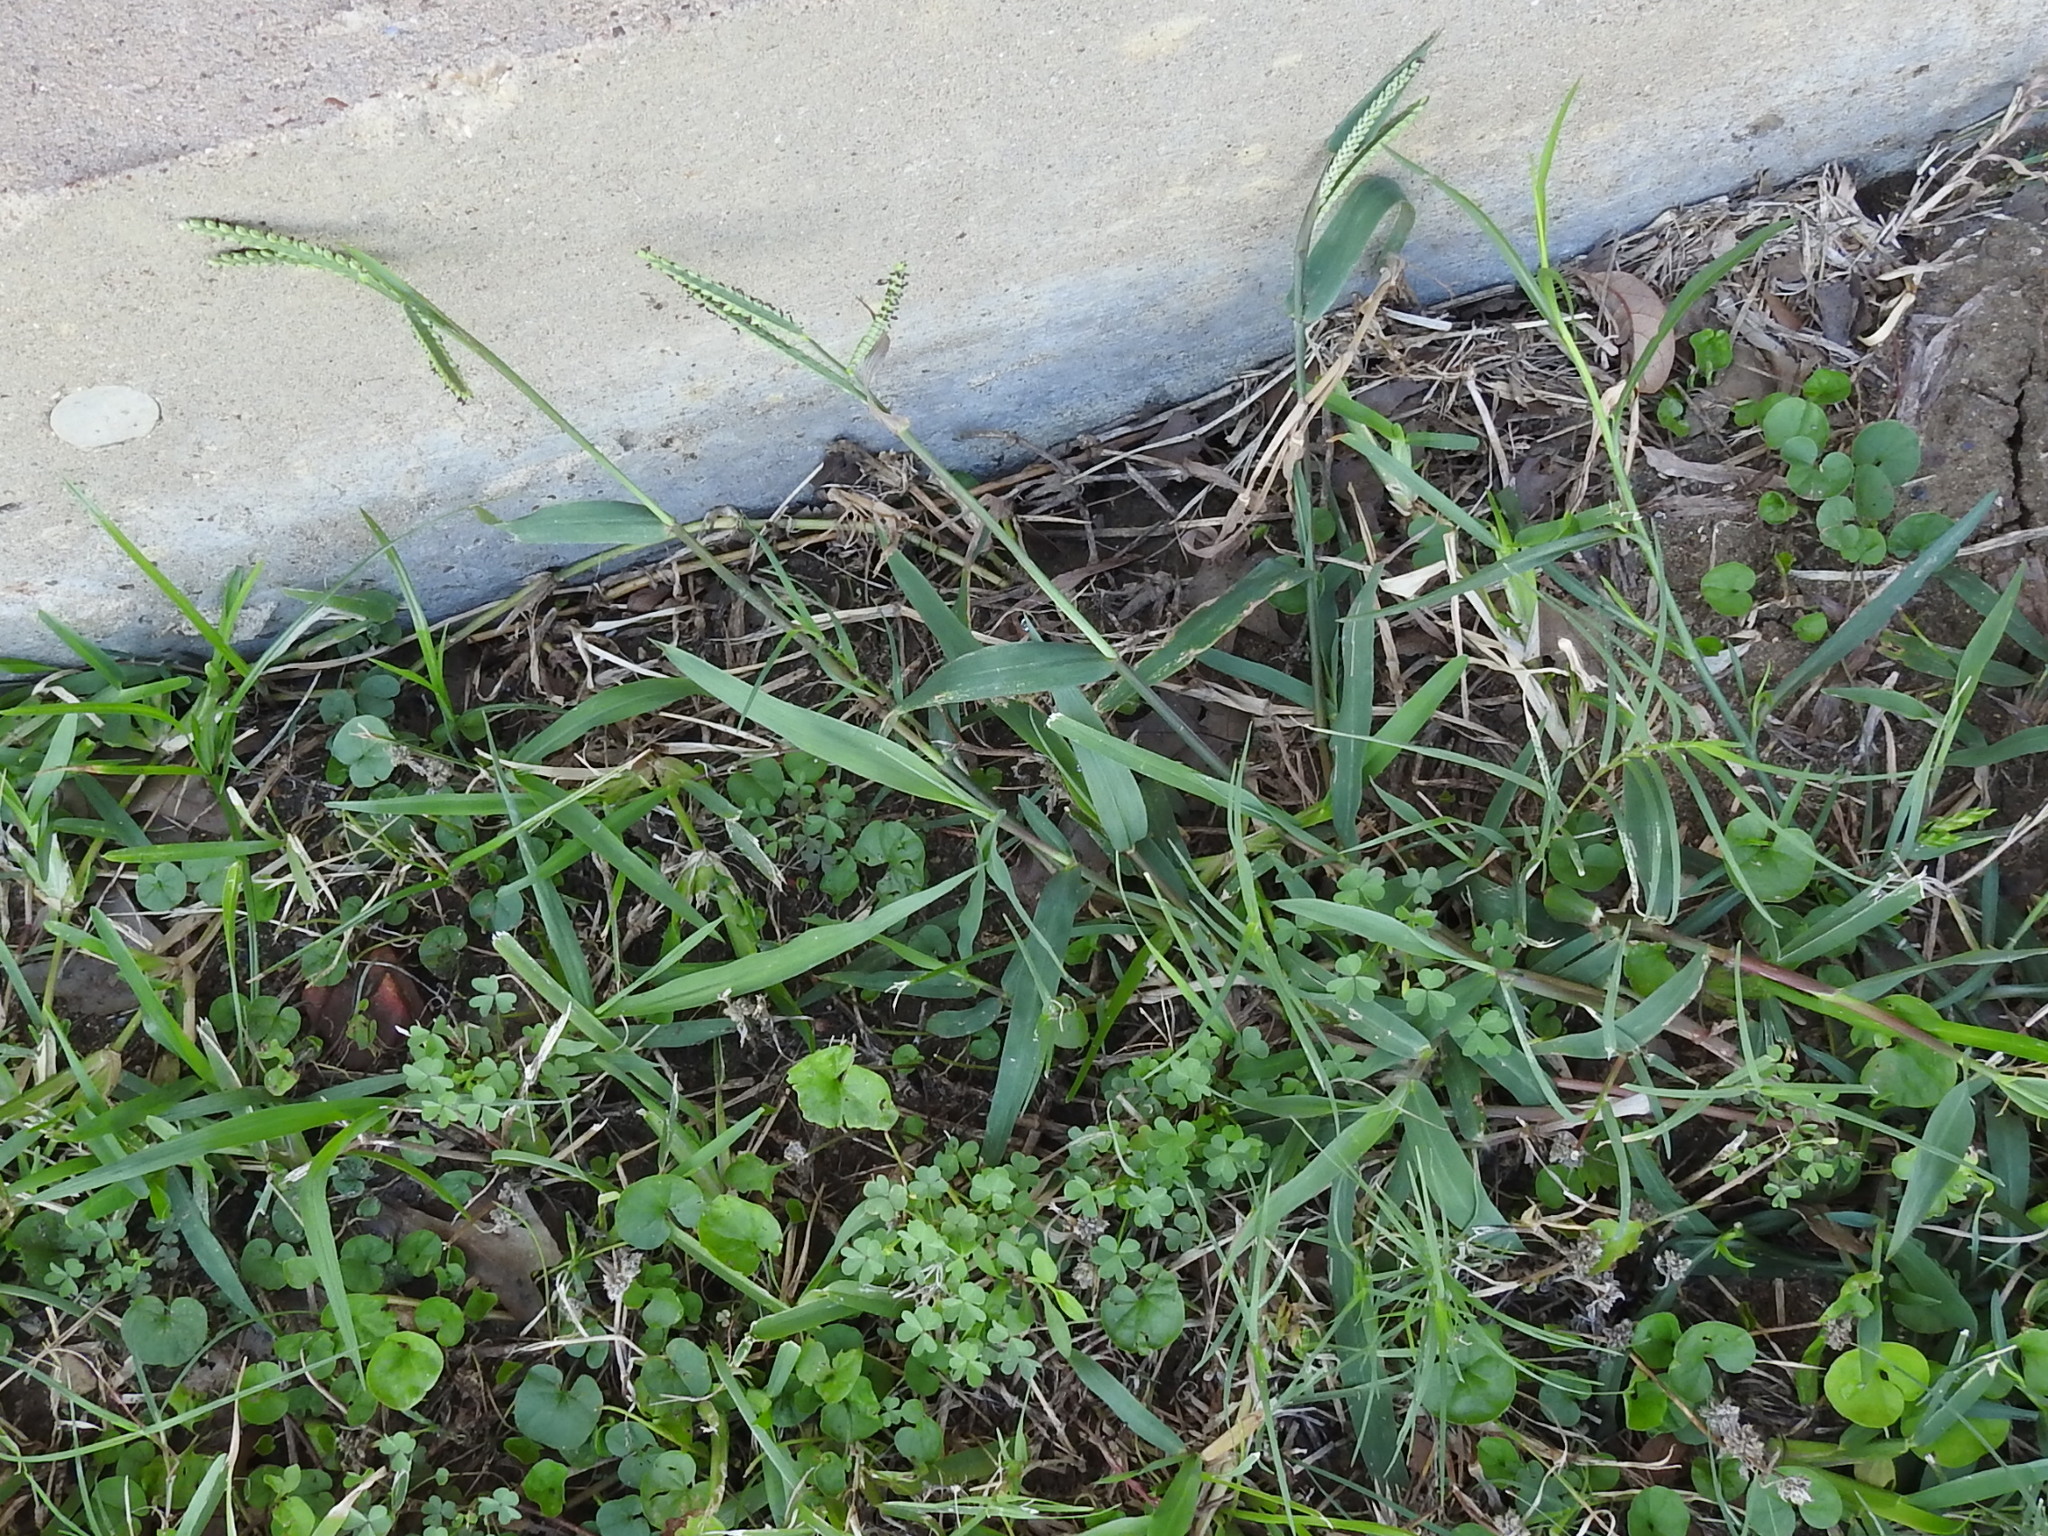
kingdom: Plantae
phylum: Tracheophyta
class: Liliopsida
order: Poales
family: Poaceae
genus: Paspalum
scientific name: Paspalum dilatatum
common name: Dallisgrass
